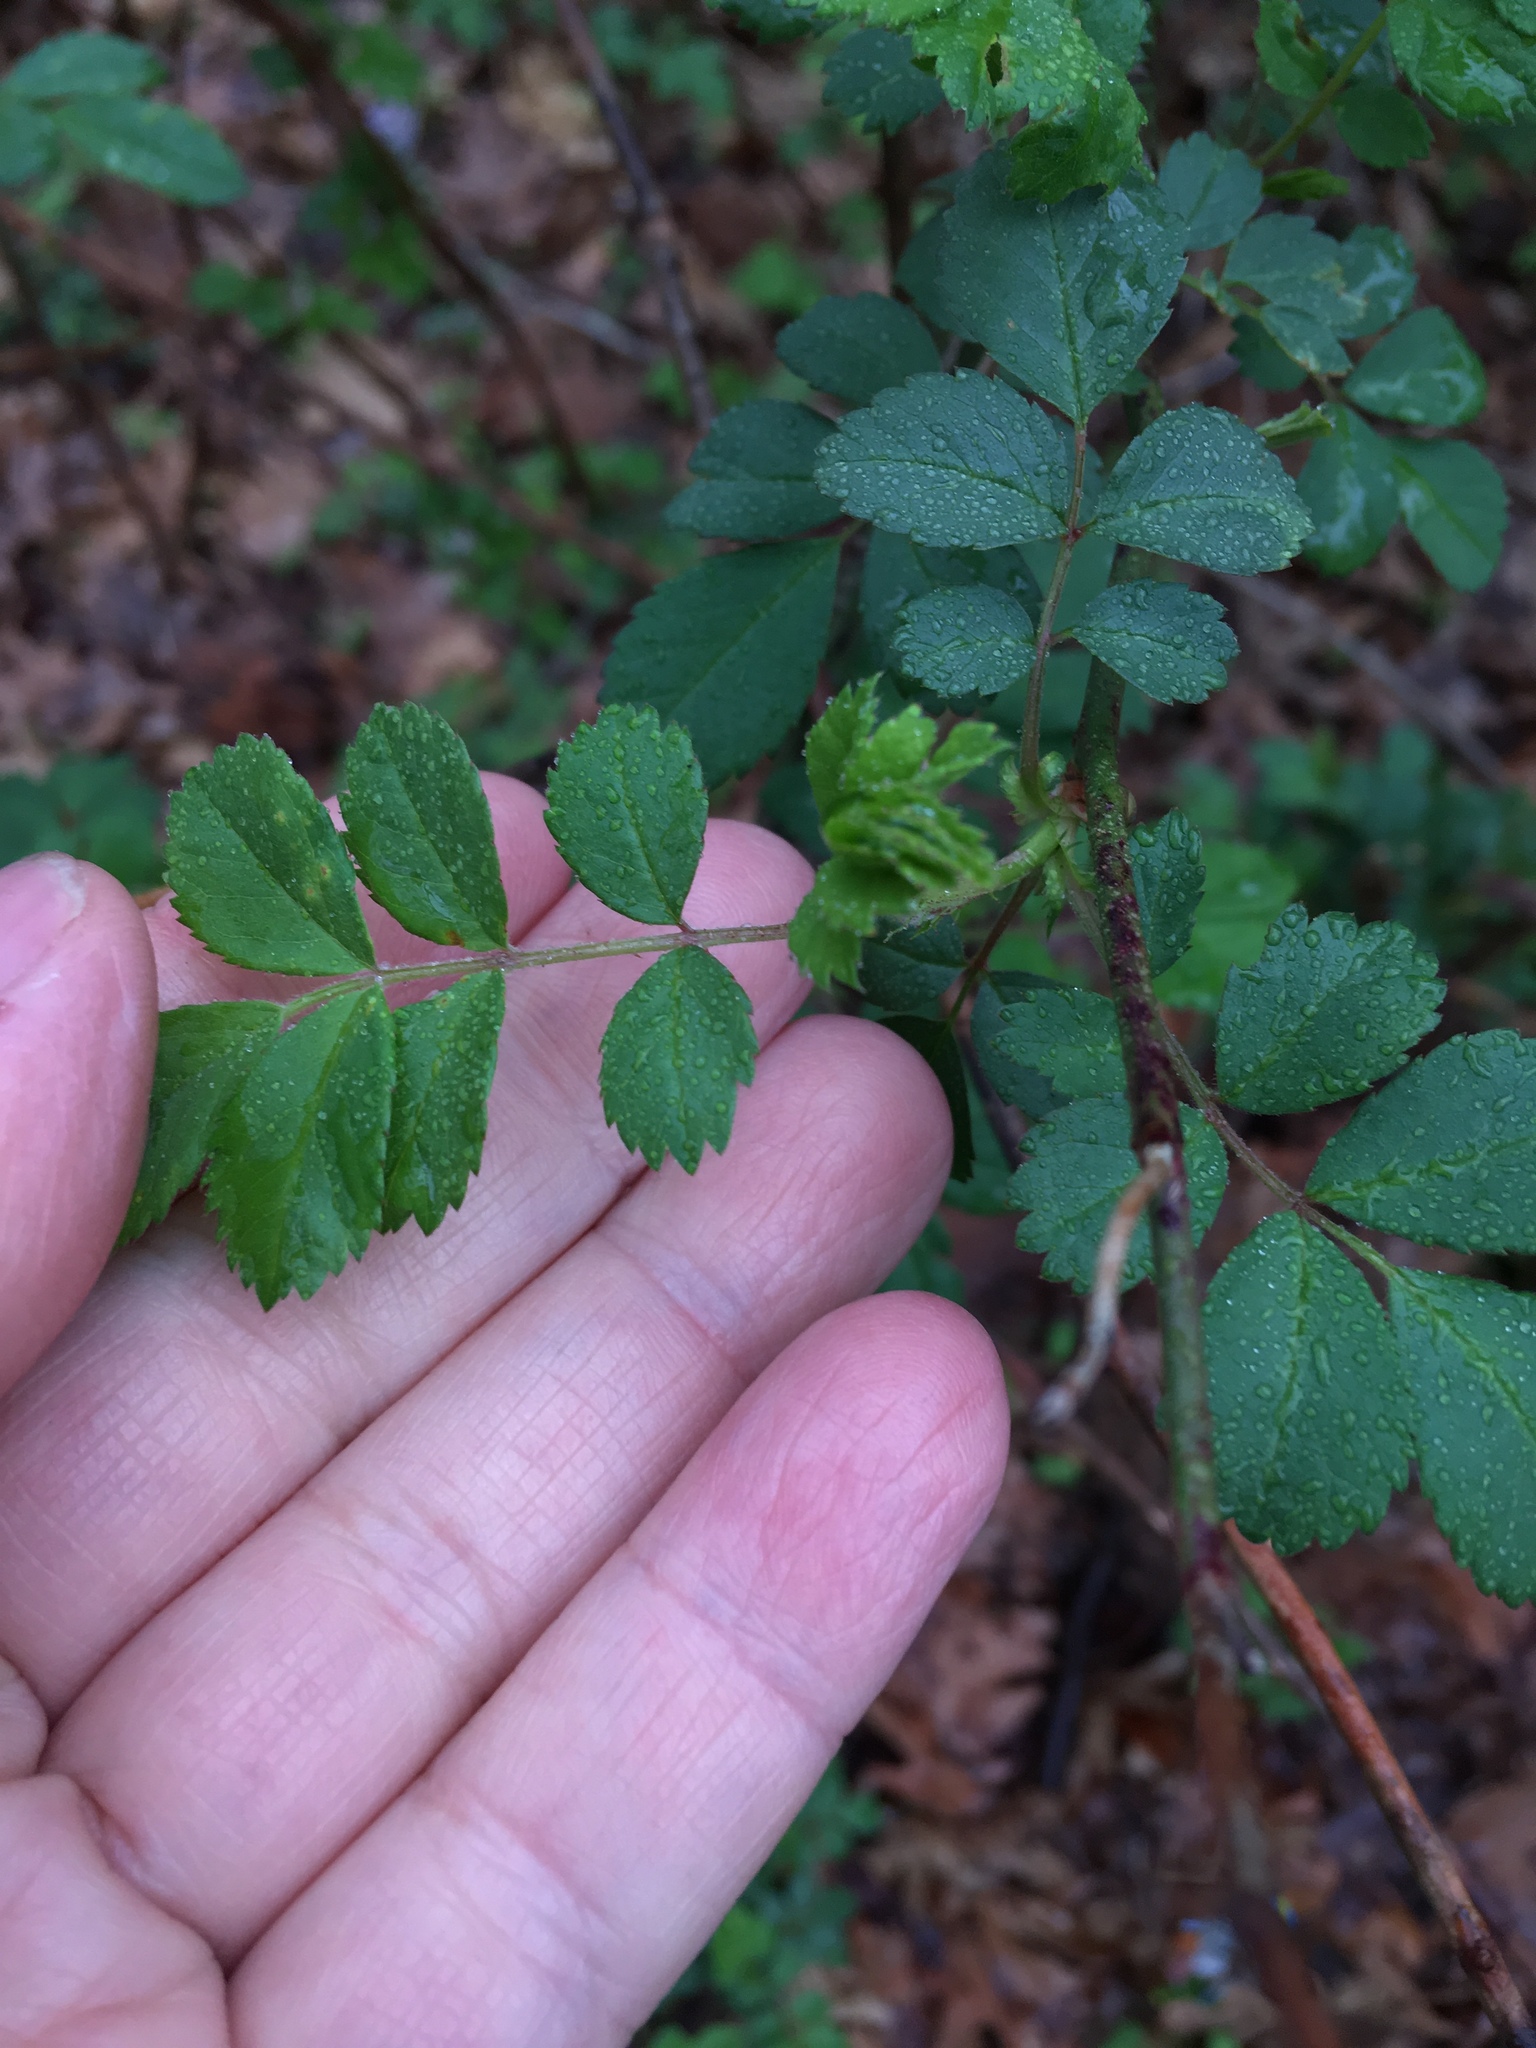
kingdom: Plantae
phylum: Tracheophyta
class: Magnoliopsida
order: Rosales
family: Rosaceae
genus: Rosa
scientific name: Rosa multiflora
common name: Multiflora rose
